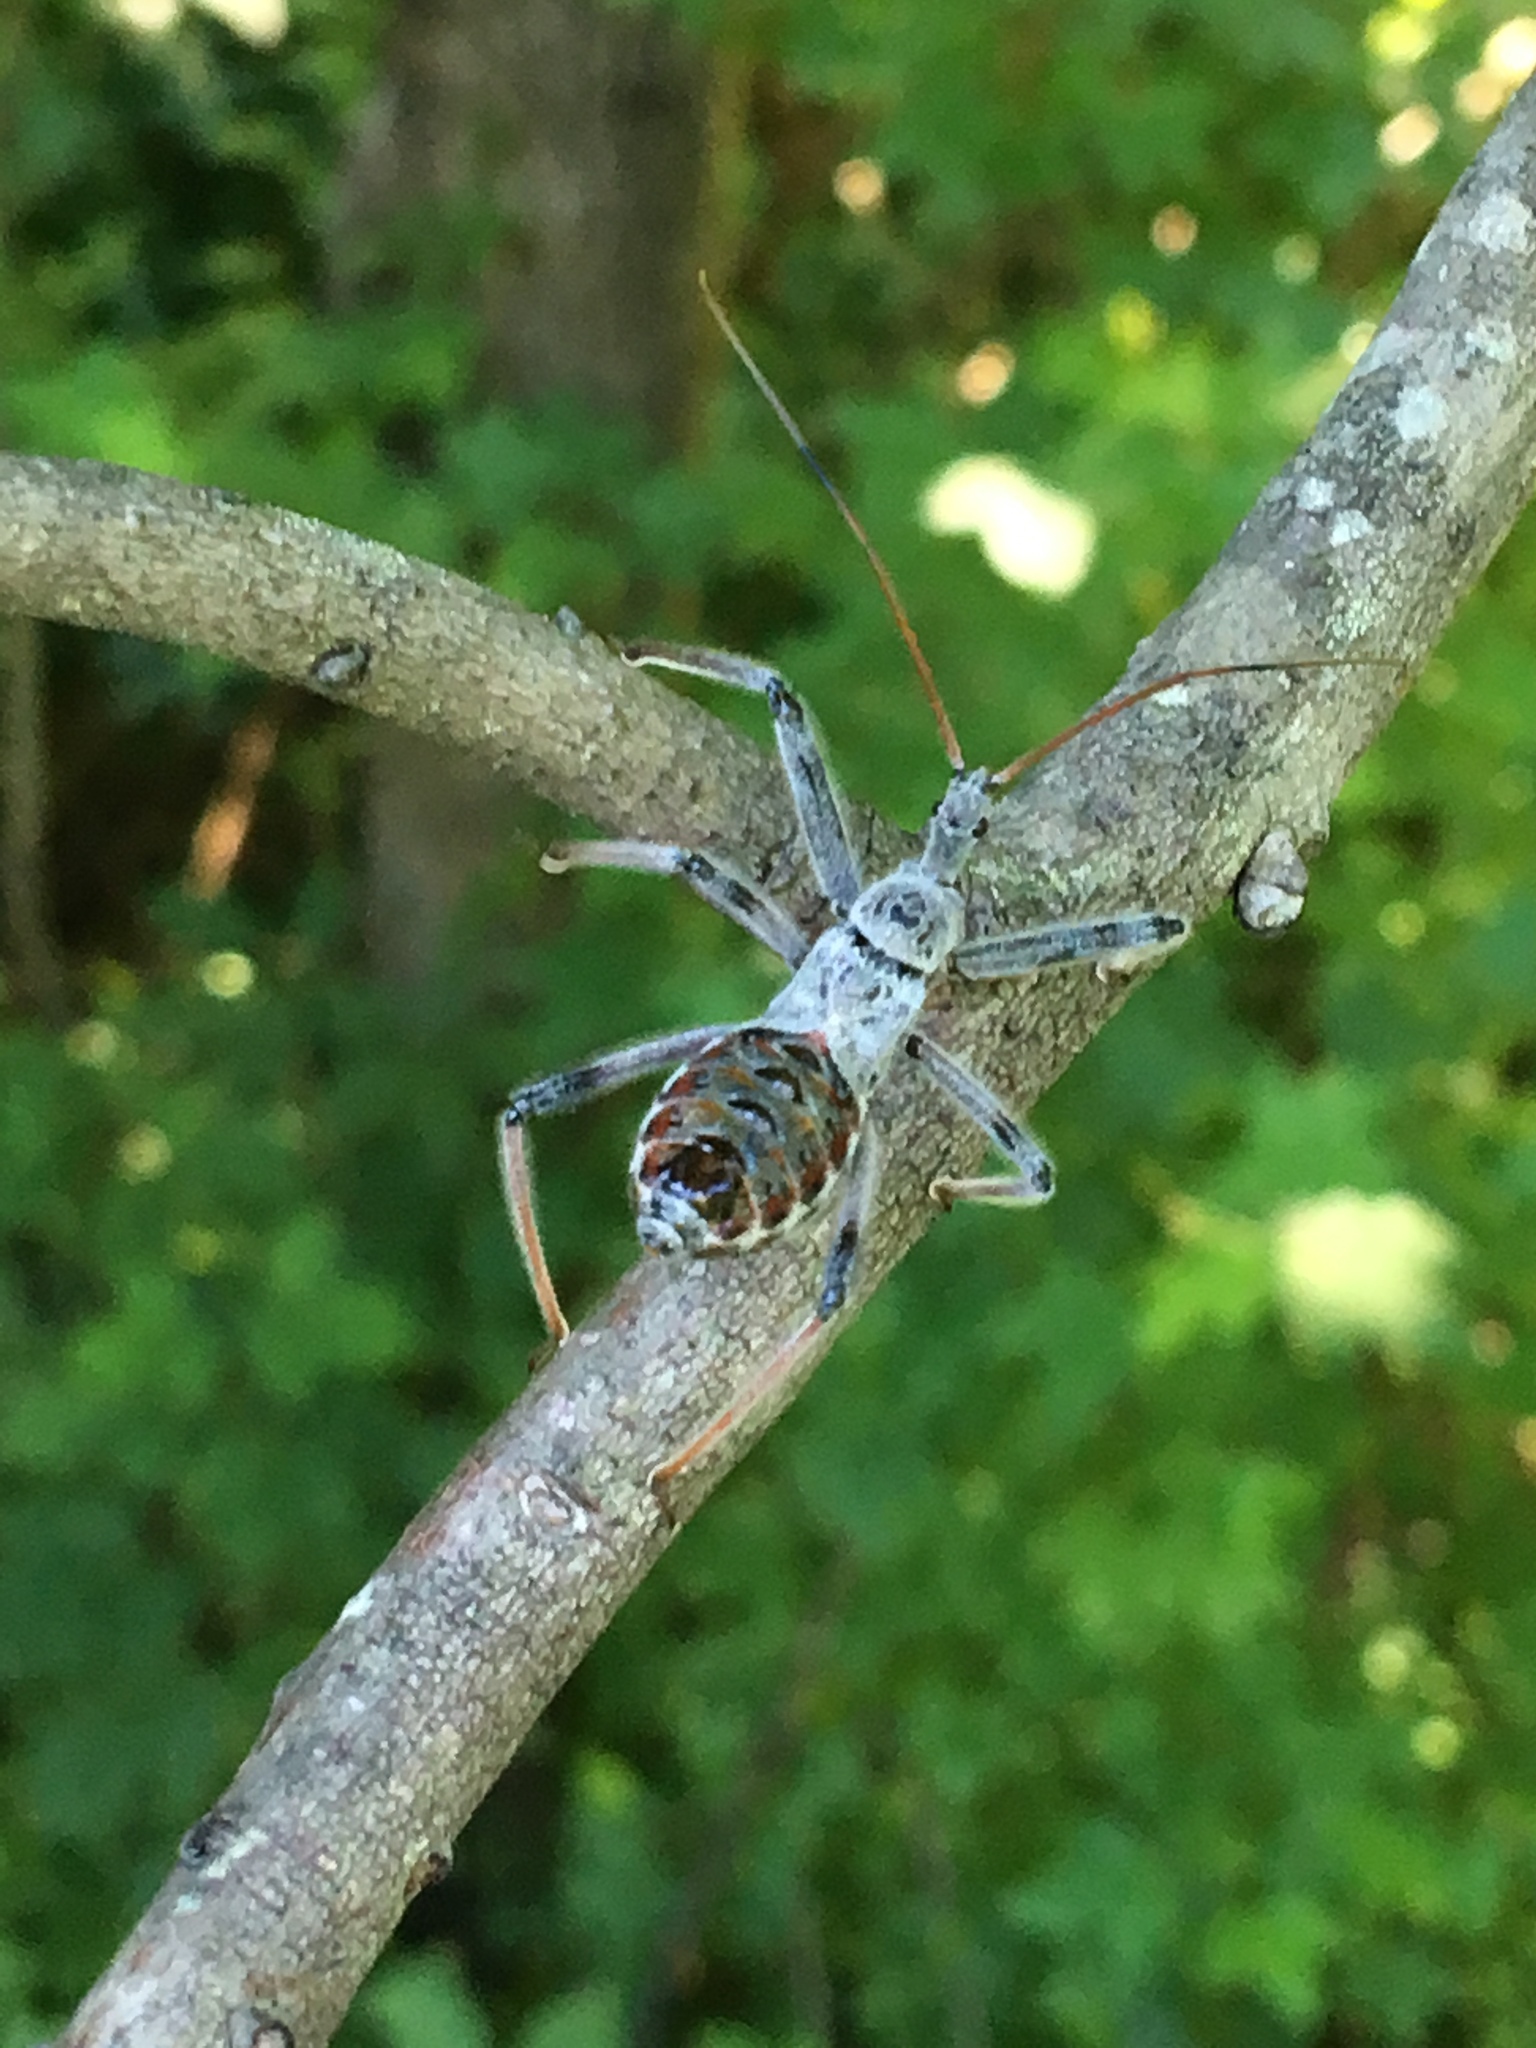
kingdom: Animalia
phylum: Arthropoda
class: Insecta
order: Hemiptera
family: Reduviidae
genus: Arilus
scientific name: Arilus cristatus
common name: North american wheel bug
